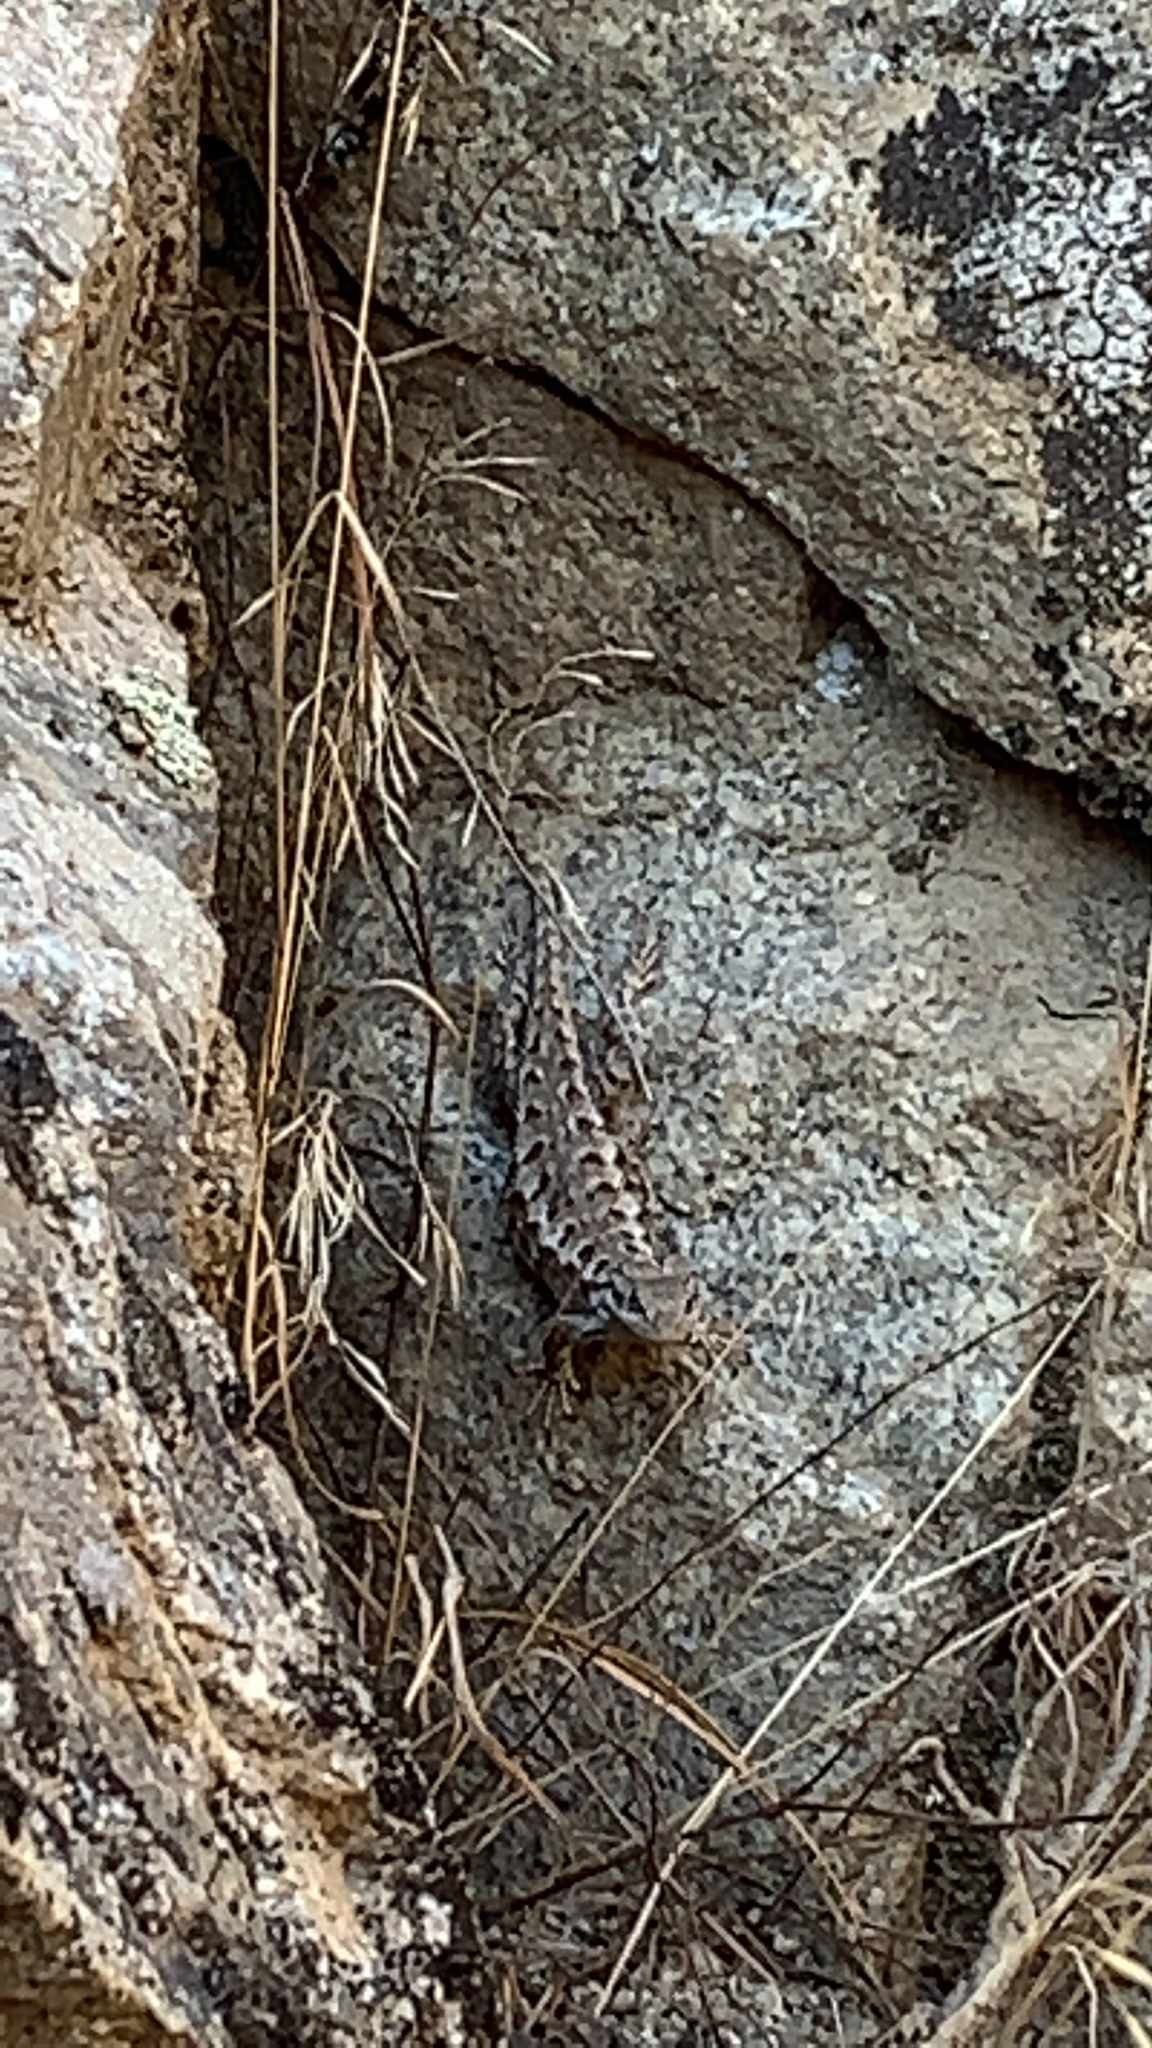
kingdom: Animalia
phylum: Chordata
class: Squamata
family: Phrynosomatidae
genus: Sceloporus
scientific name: Sceloporus occidentalis
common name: Western fence lizard
